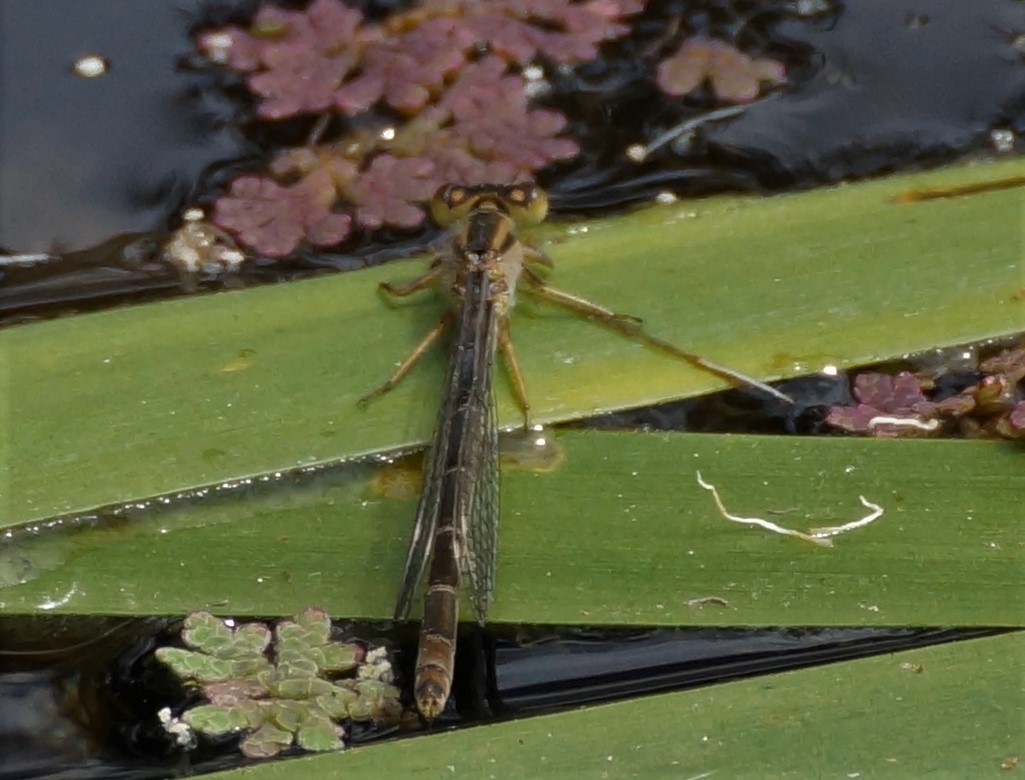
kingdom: Animalia
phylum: Arthropoda
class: Insecta
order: Odonata
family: Coenagrionidae
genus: Ischnura
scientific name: Ischnura heterosticta
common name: Common bluetail
